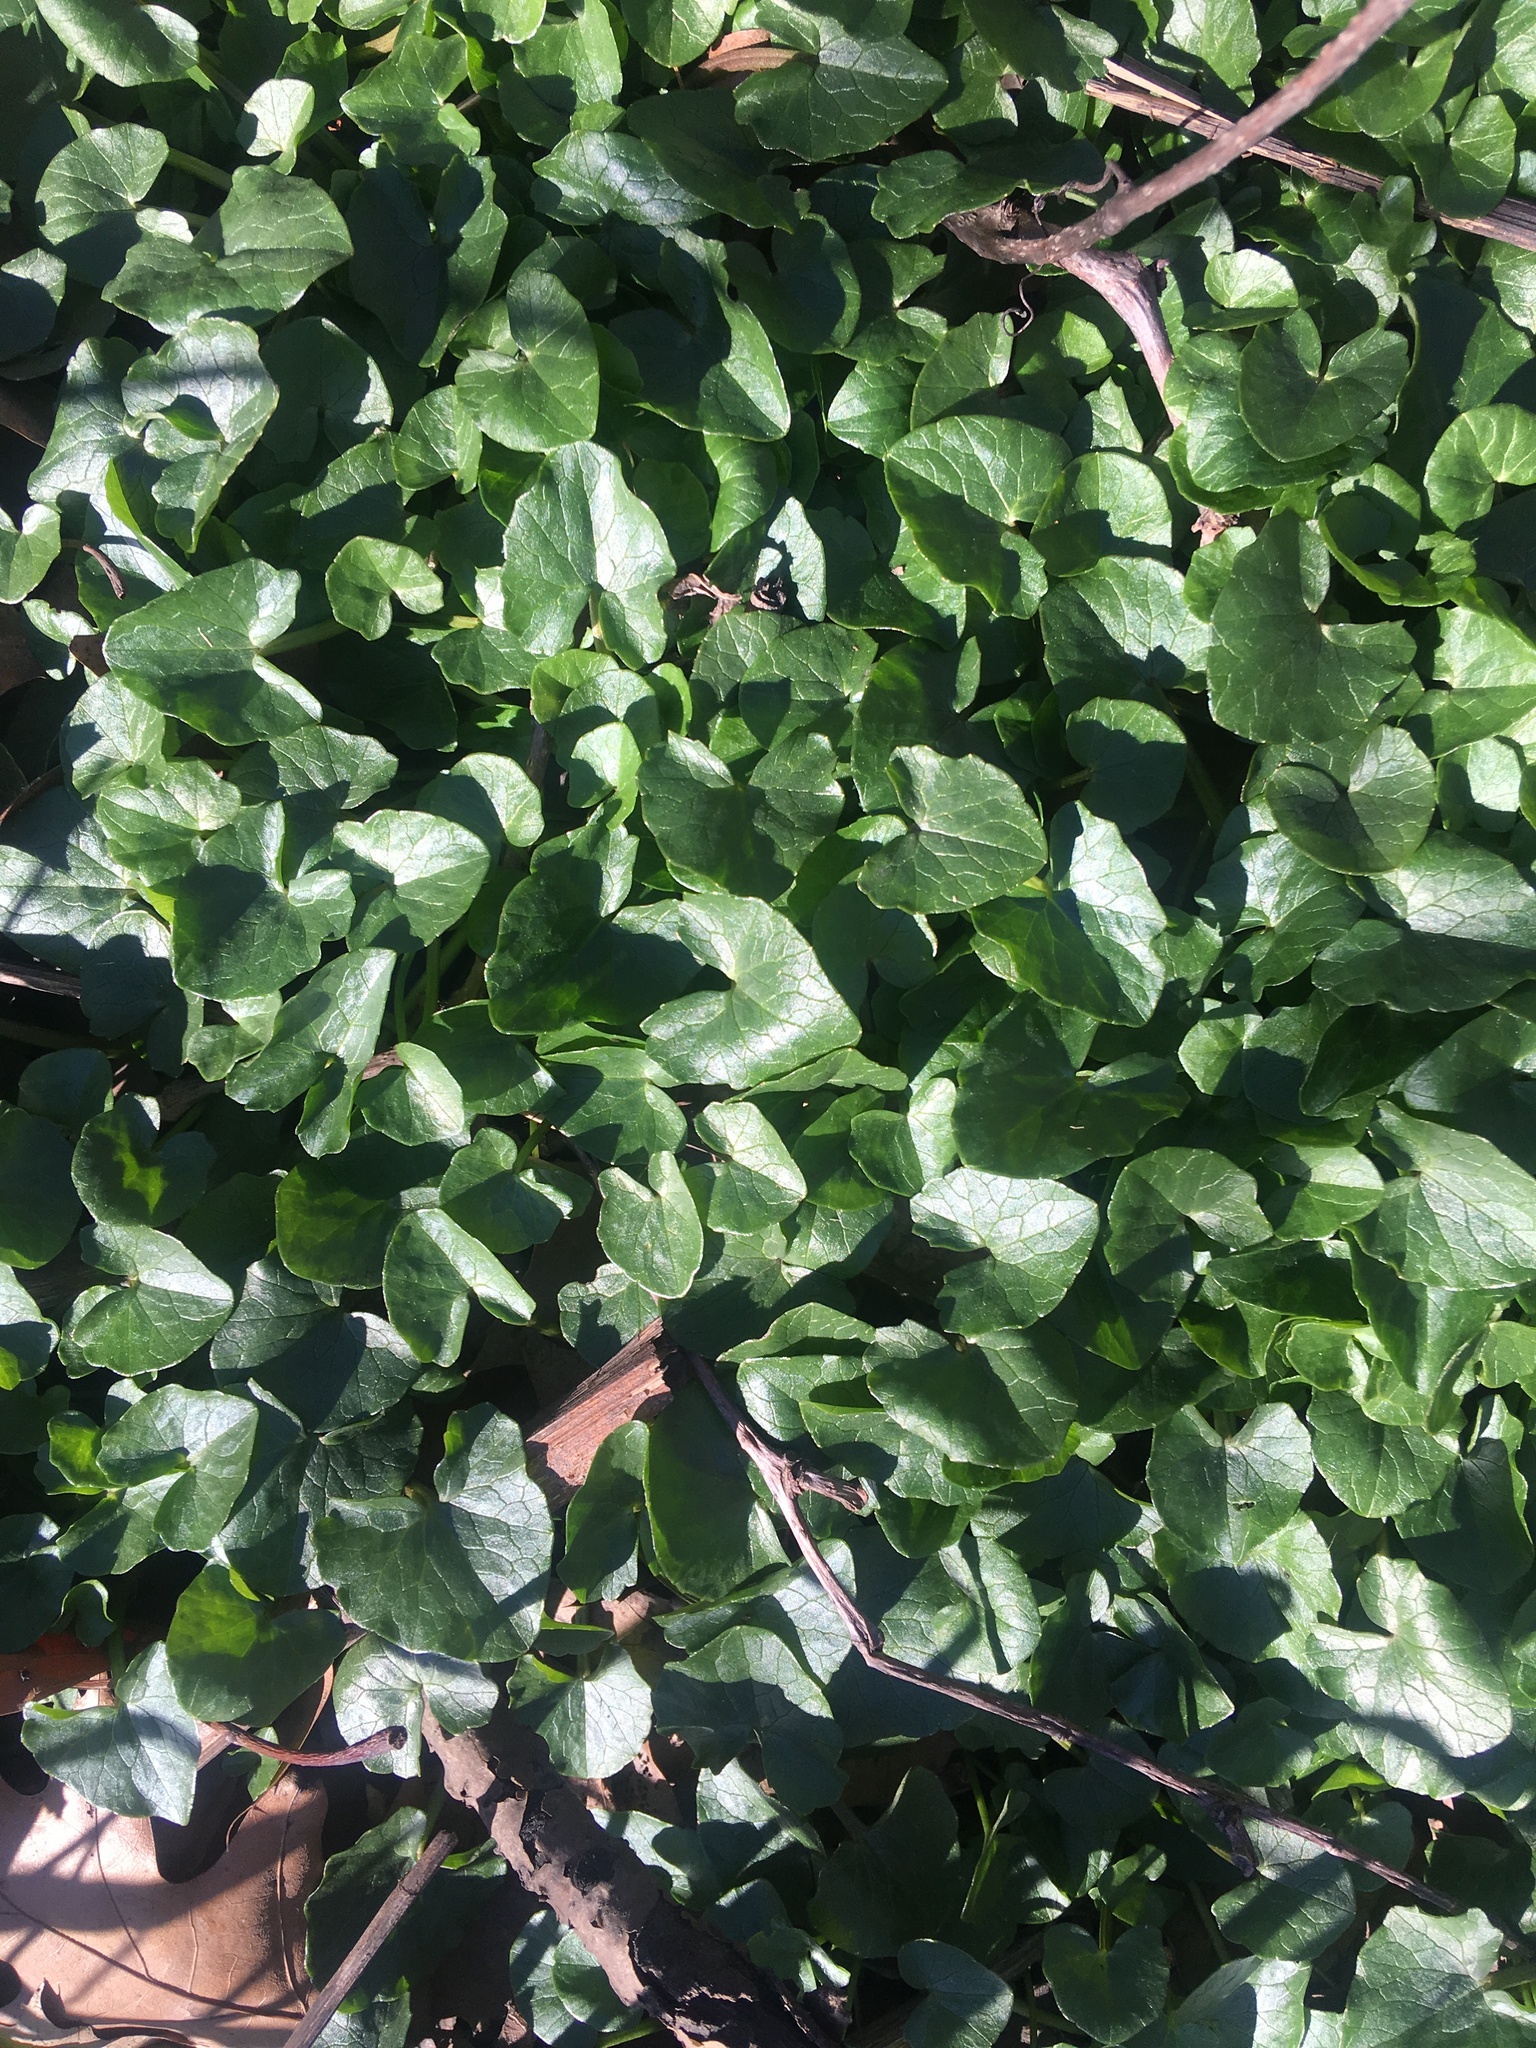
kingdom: Plantae
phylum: Tracheophyta
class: Magnoliopsida
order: Ranunculales
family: Ranunculaceae
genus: Ficaria
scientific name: Ficaria verna
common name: Lesser celandine
